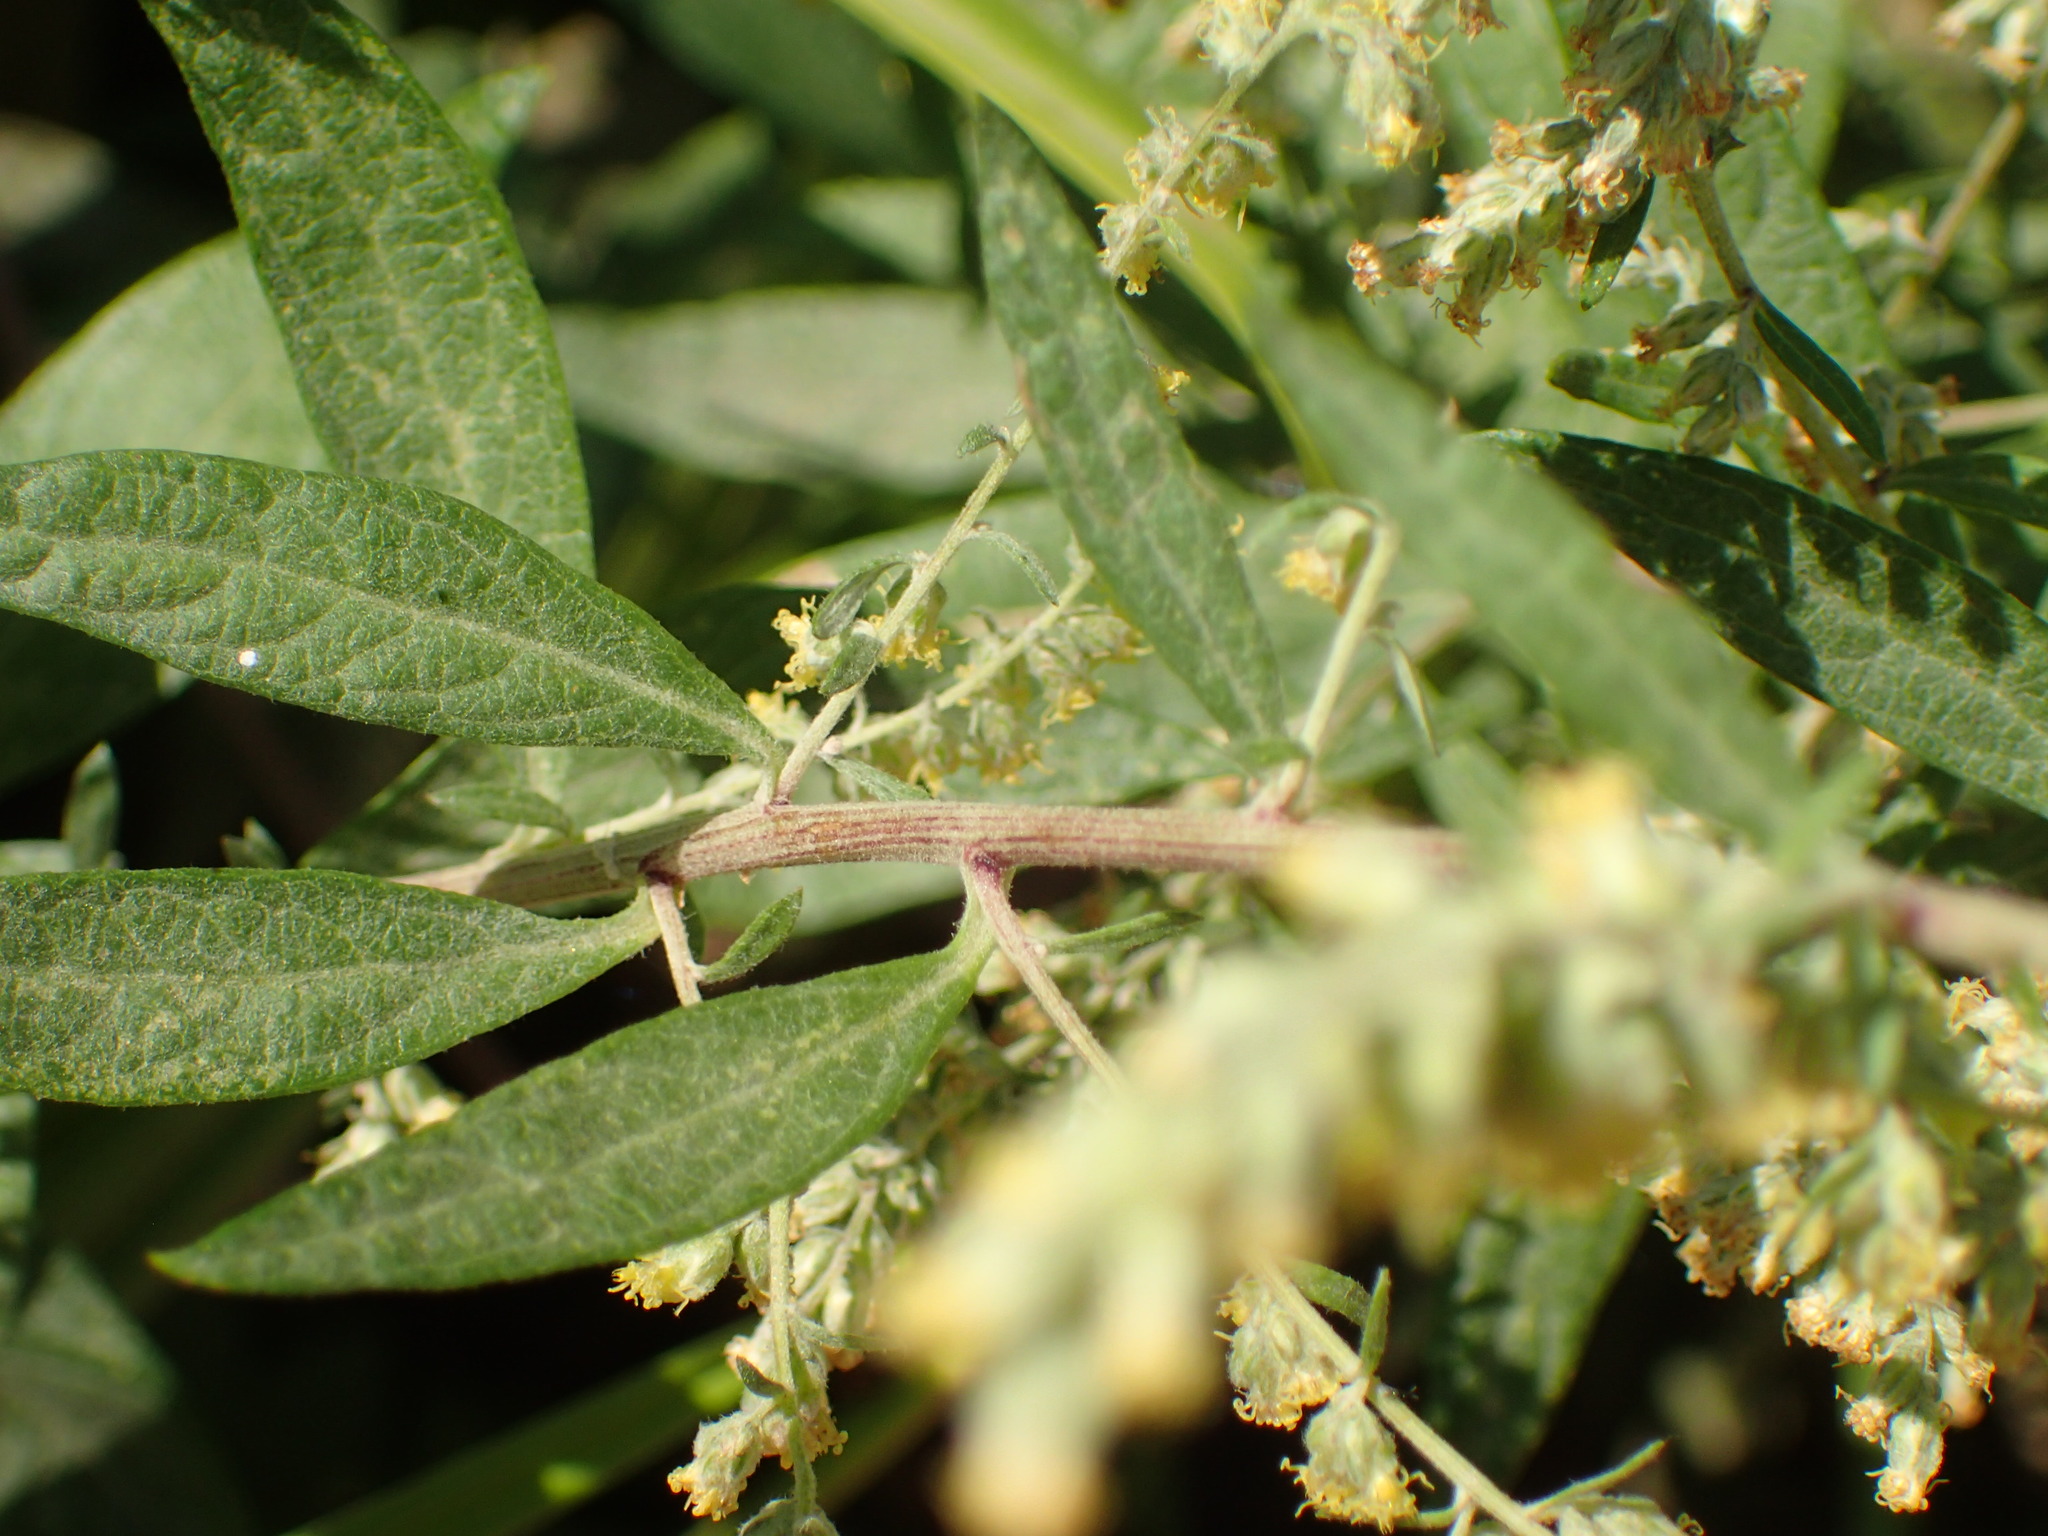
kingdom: Plantae
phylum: Tracheophyta
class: Magnoliopsida
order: Asterales
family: Asteraceae
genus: Artemisia
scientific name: Artemisia douglasiana
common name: Northwest mugwort
